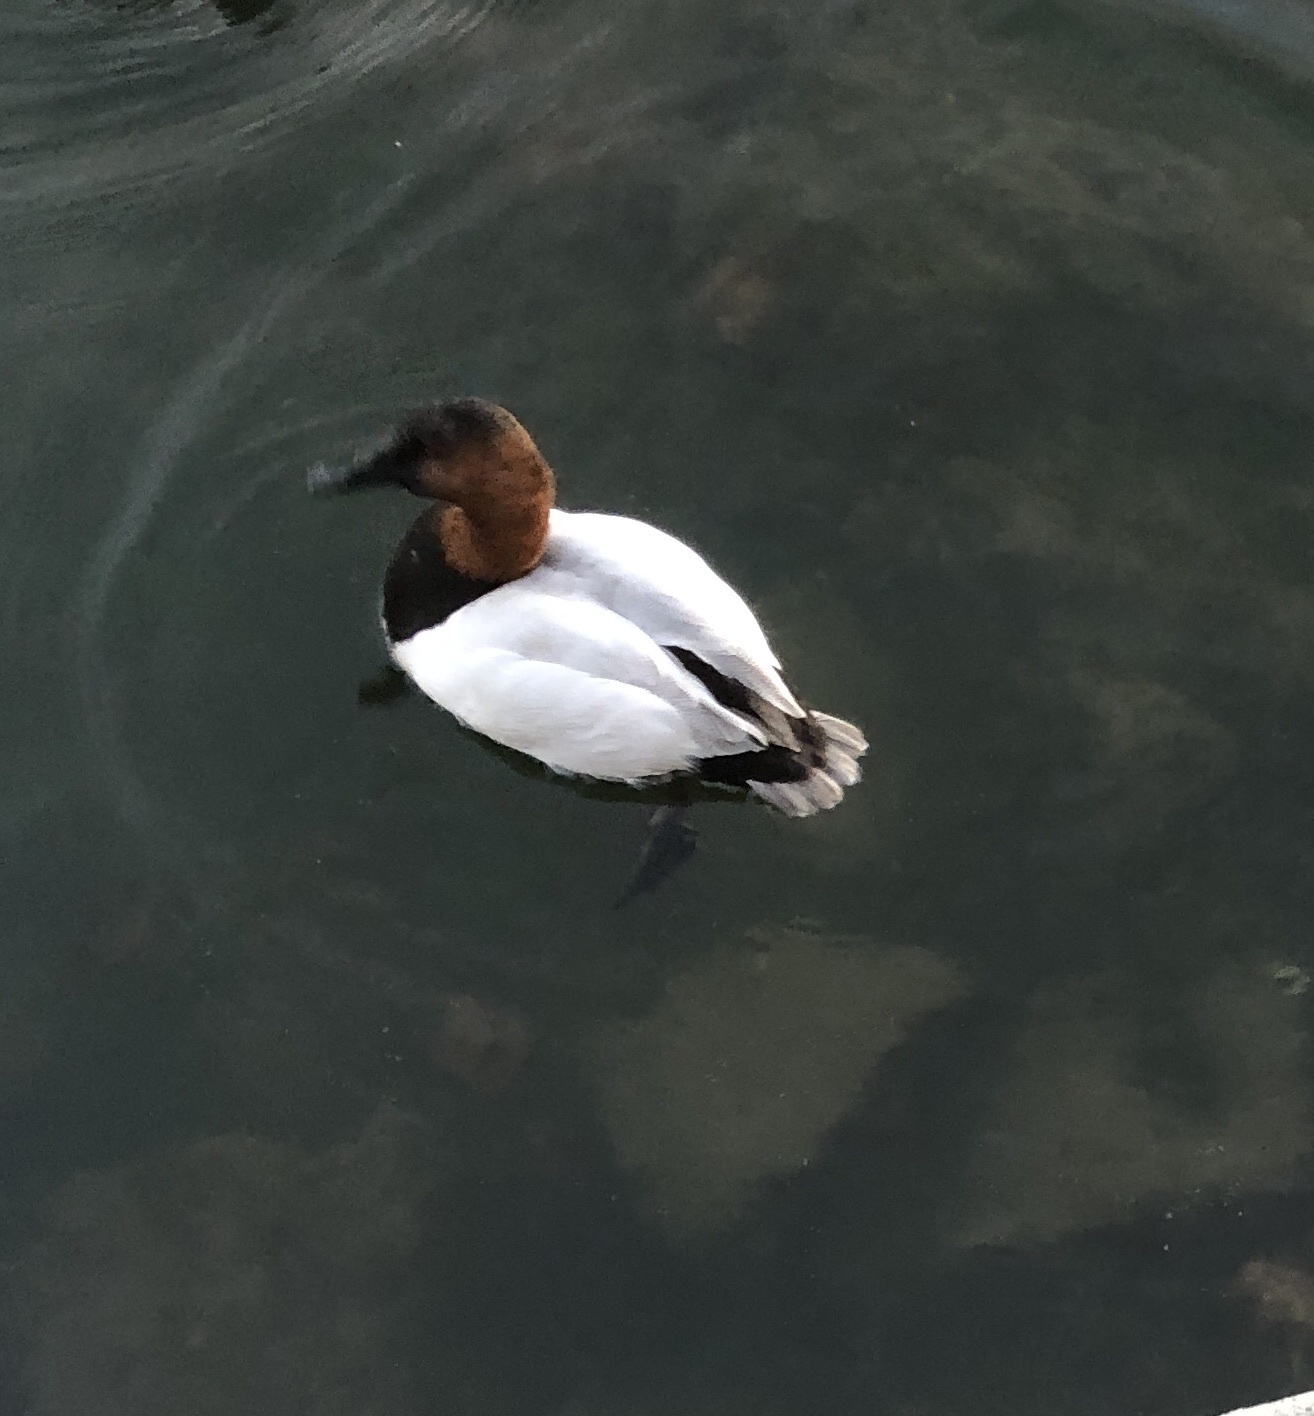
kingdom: Animalia
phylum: Chordata
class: Aves
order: Anseriformes
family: Anatidae
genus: Aythya
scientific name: Aythya valisineria
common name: Canvasback
